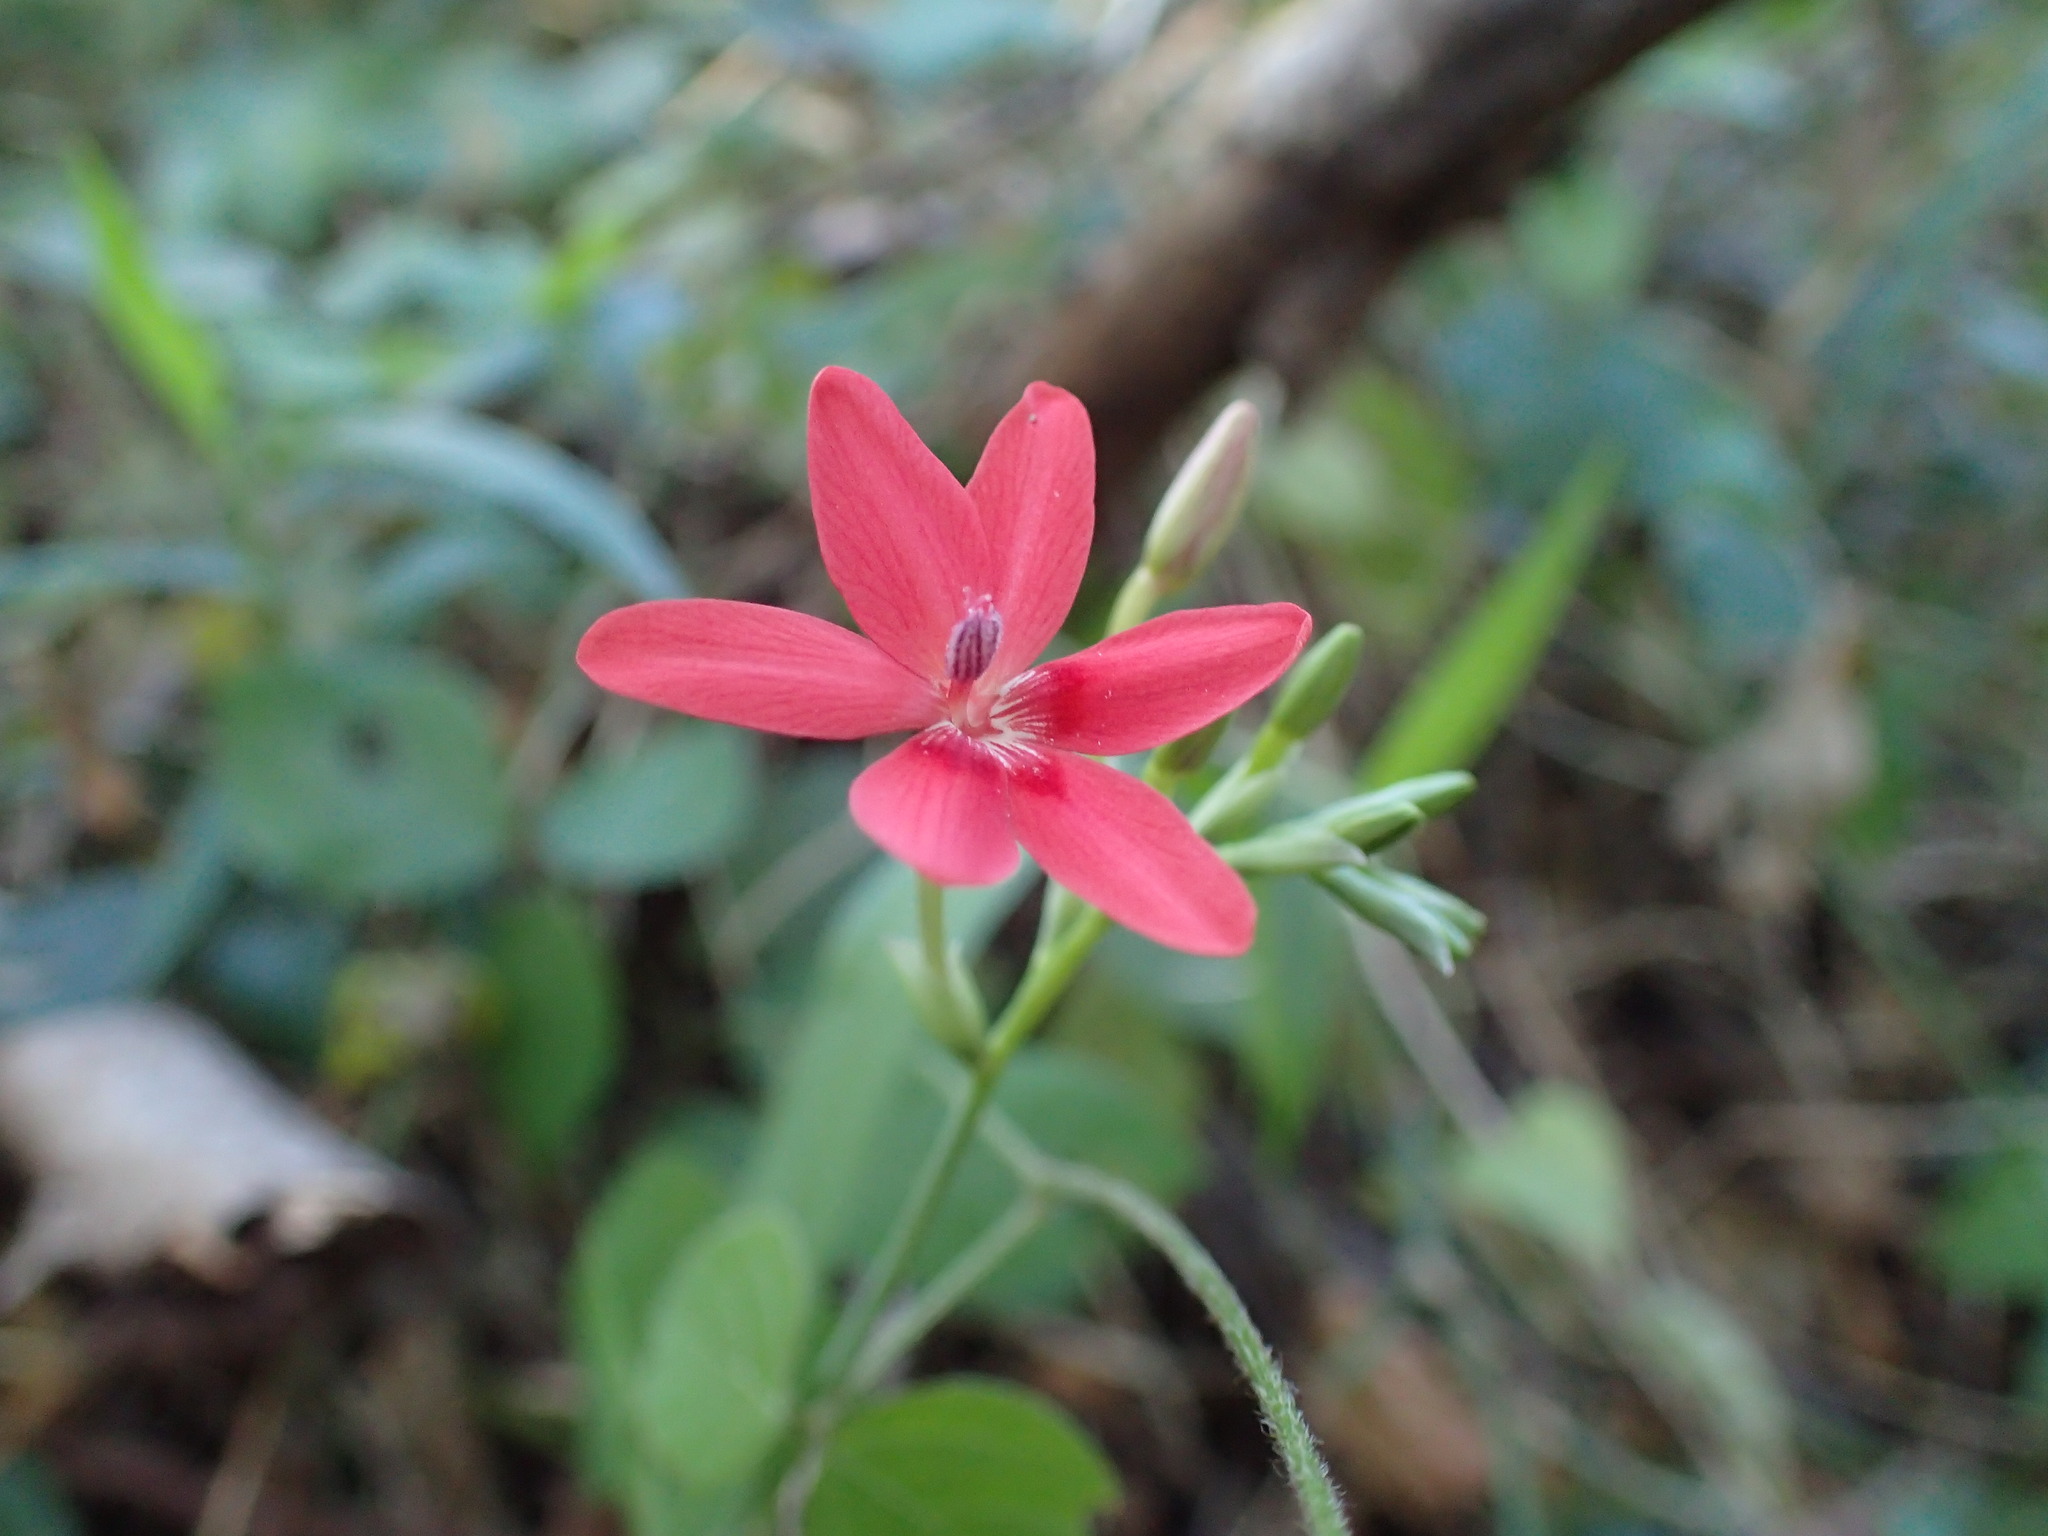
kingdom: Plantae
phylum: Tracheophyta
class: Liliopsida
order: Asparagales
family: Iridaceae
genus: Freesia
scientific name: Freesia laxa
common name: False freesia
